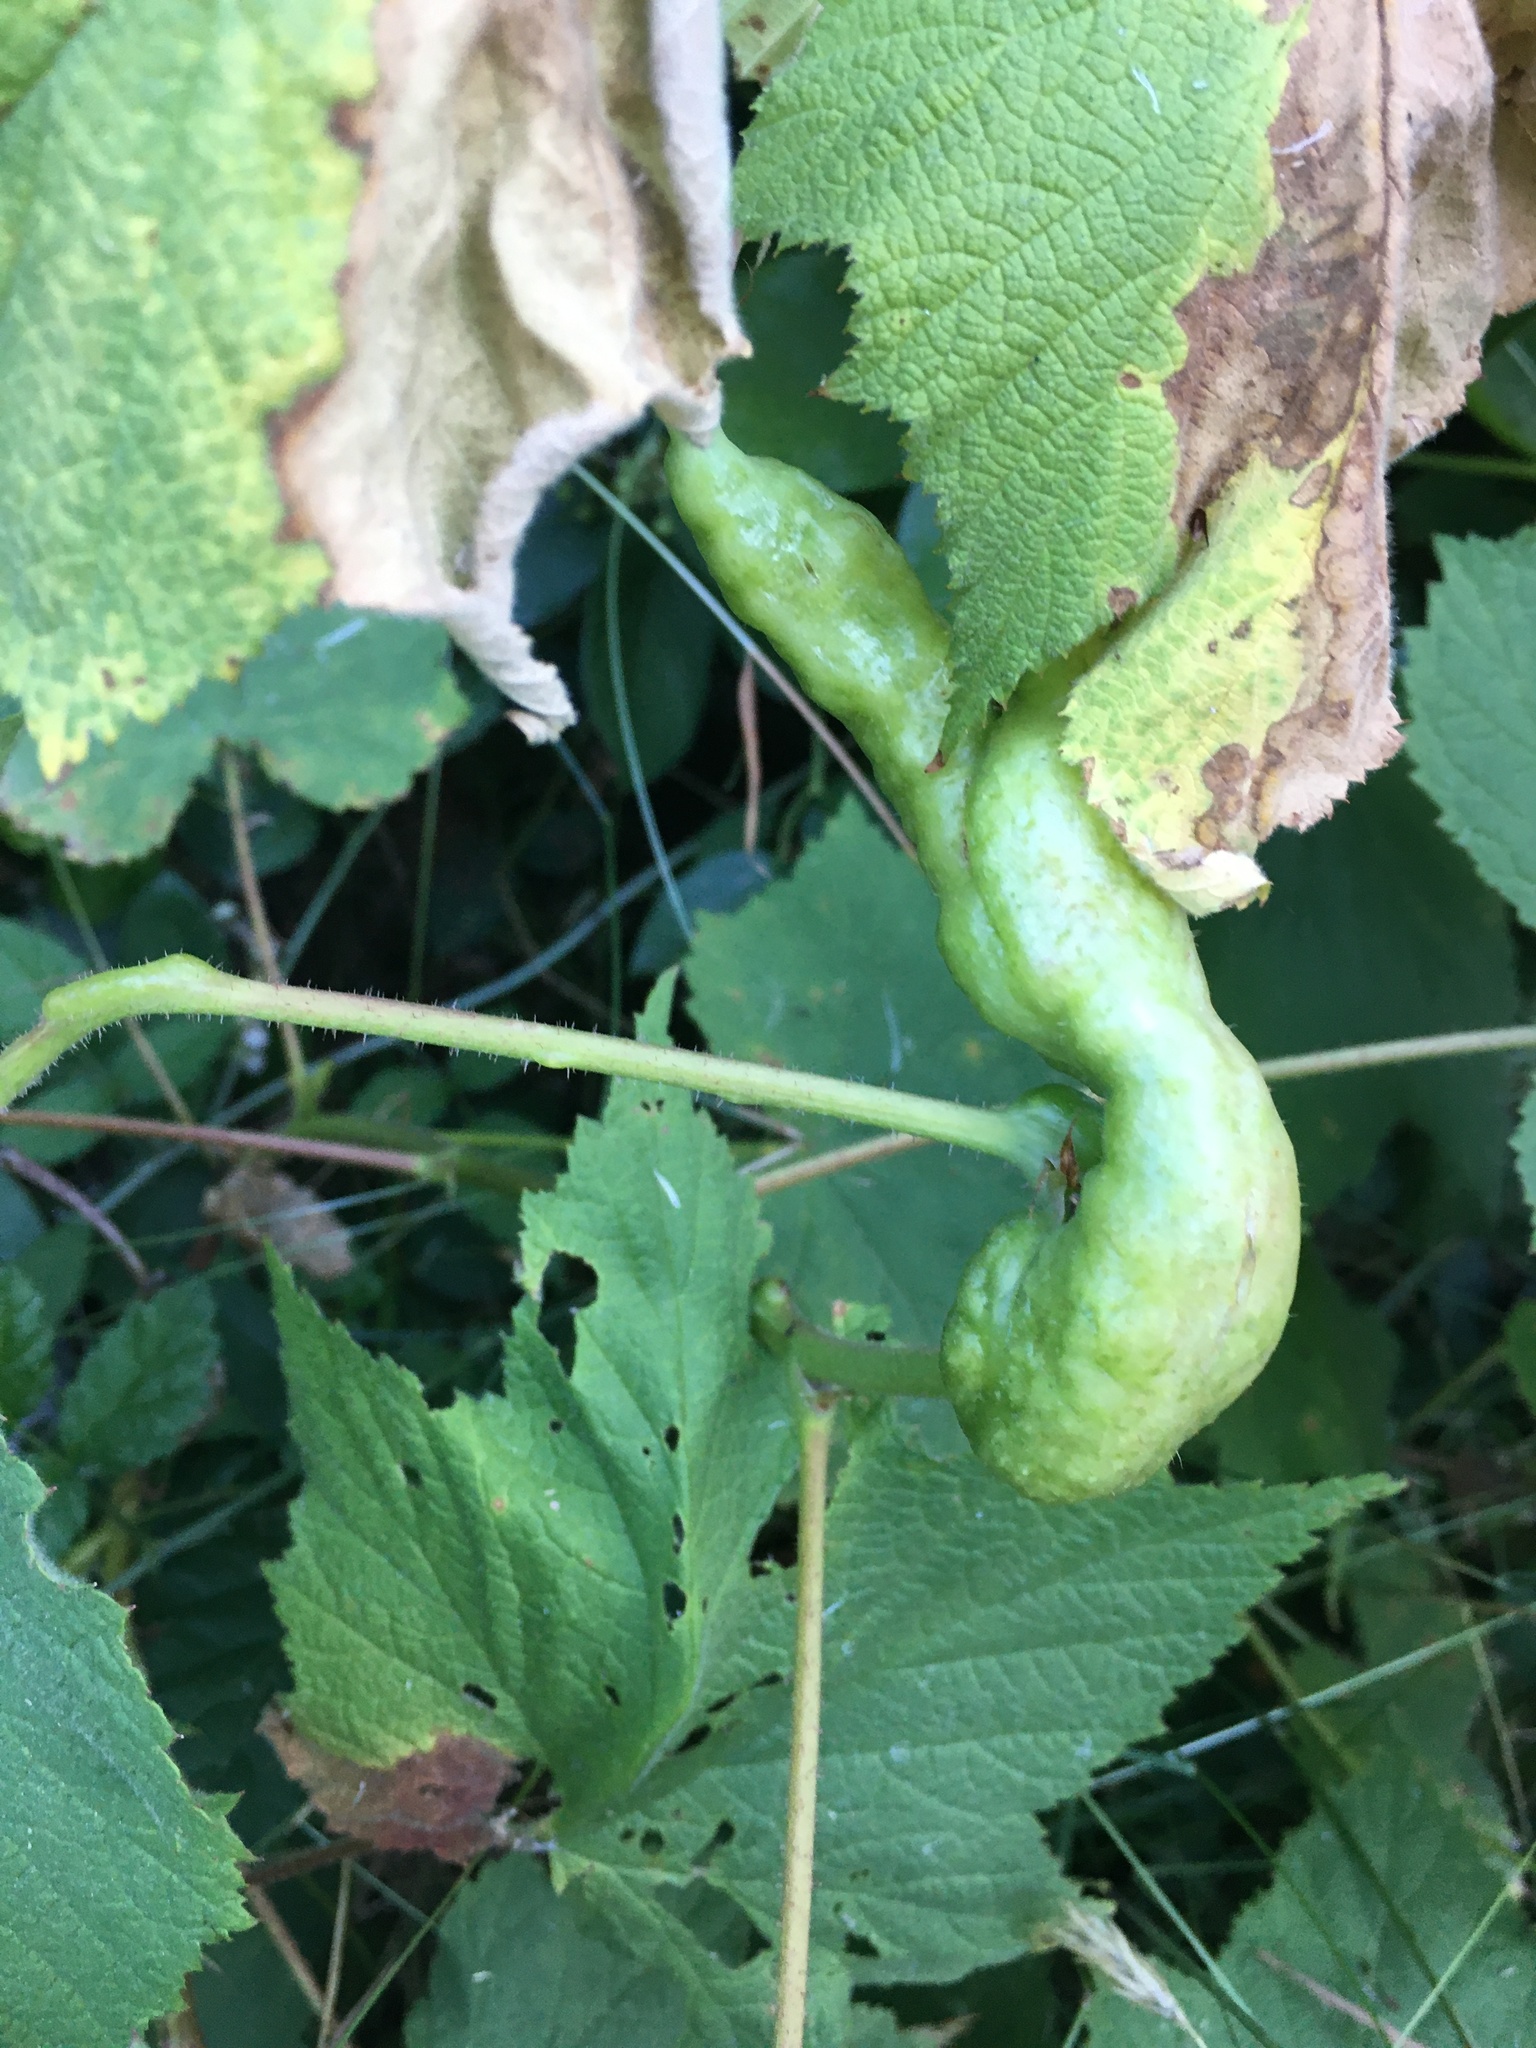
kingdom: Animalia
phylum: Arthropoda
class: Insecta
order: Hymenoptera
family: Cynipidae
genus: Diastrophus
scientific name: Diastrophus
